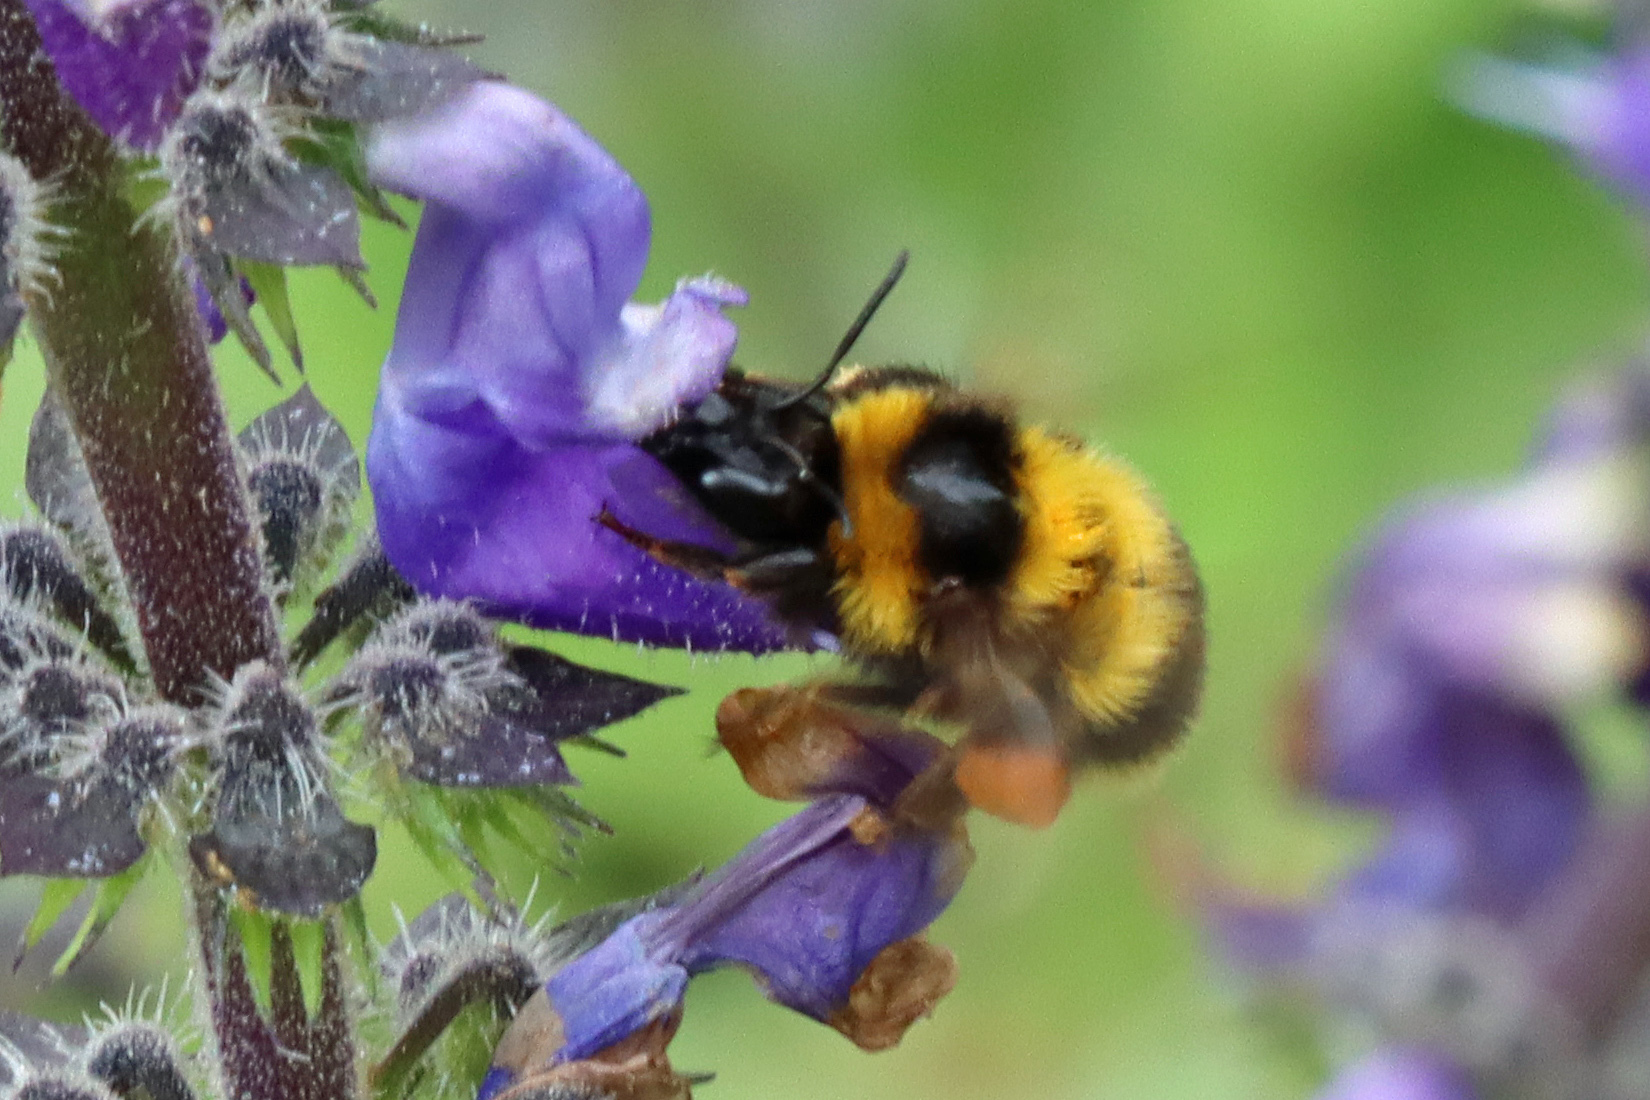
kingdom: Animalia
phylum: Arthropoda
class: Insecta
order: Hymenoptera
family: Apidae
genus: Bombus
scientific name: Bombus ruderatus
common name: Large garden bumblebee
